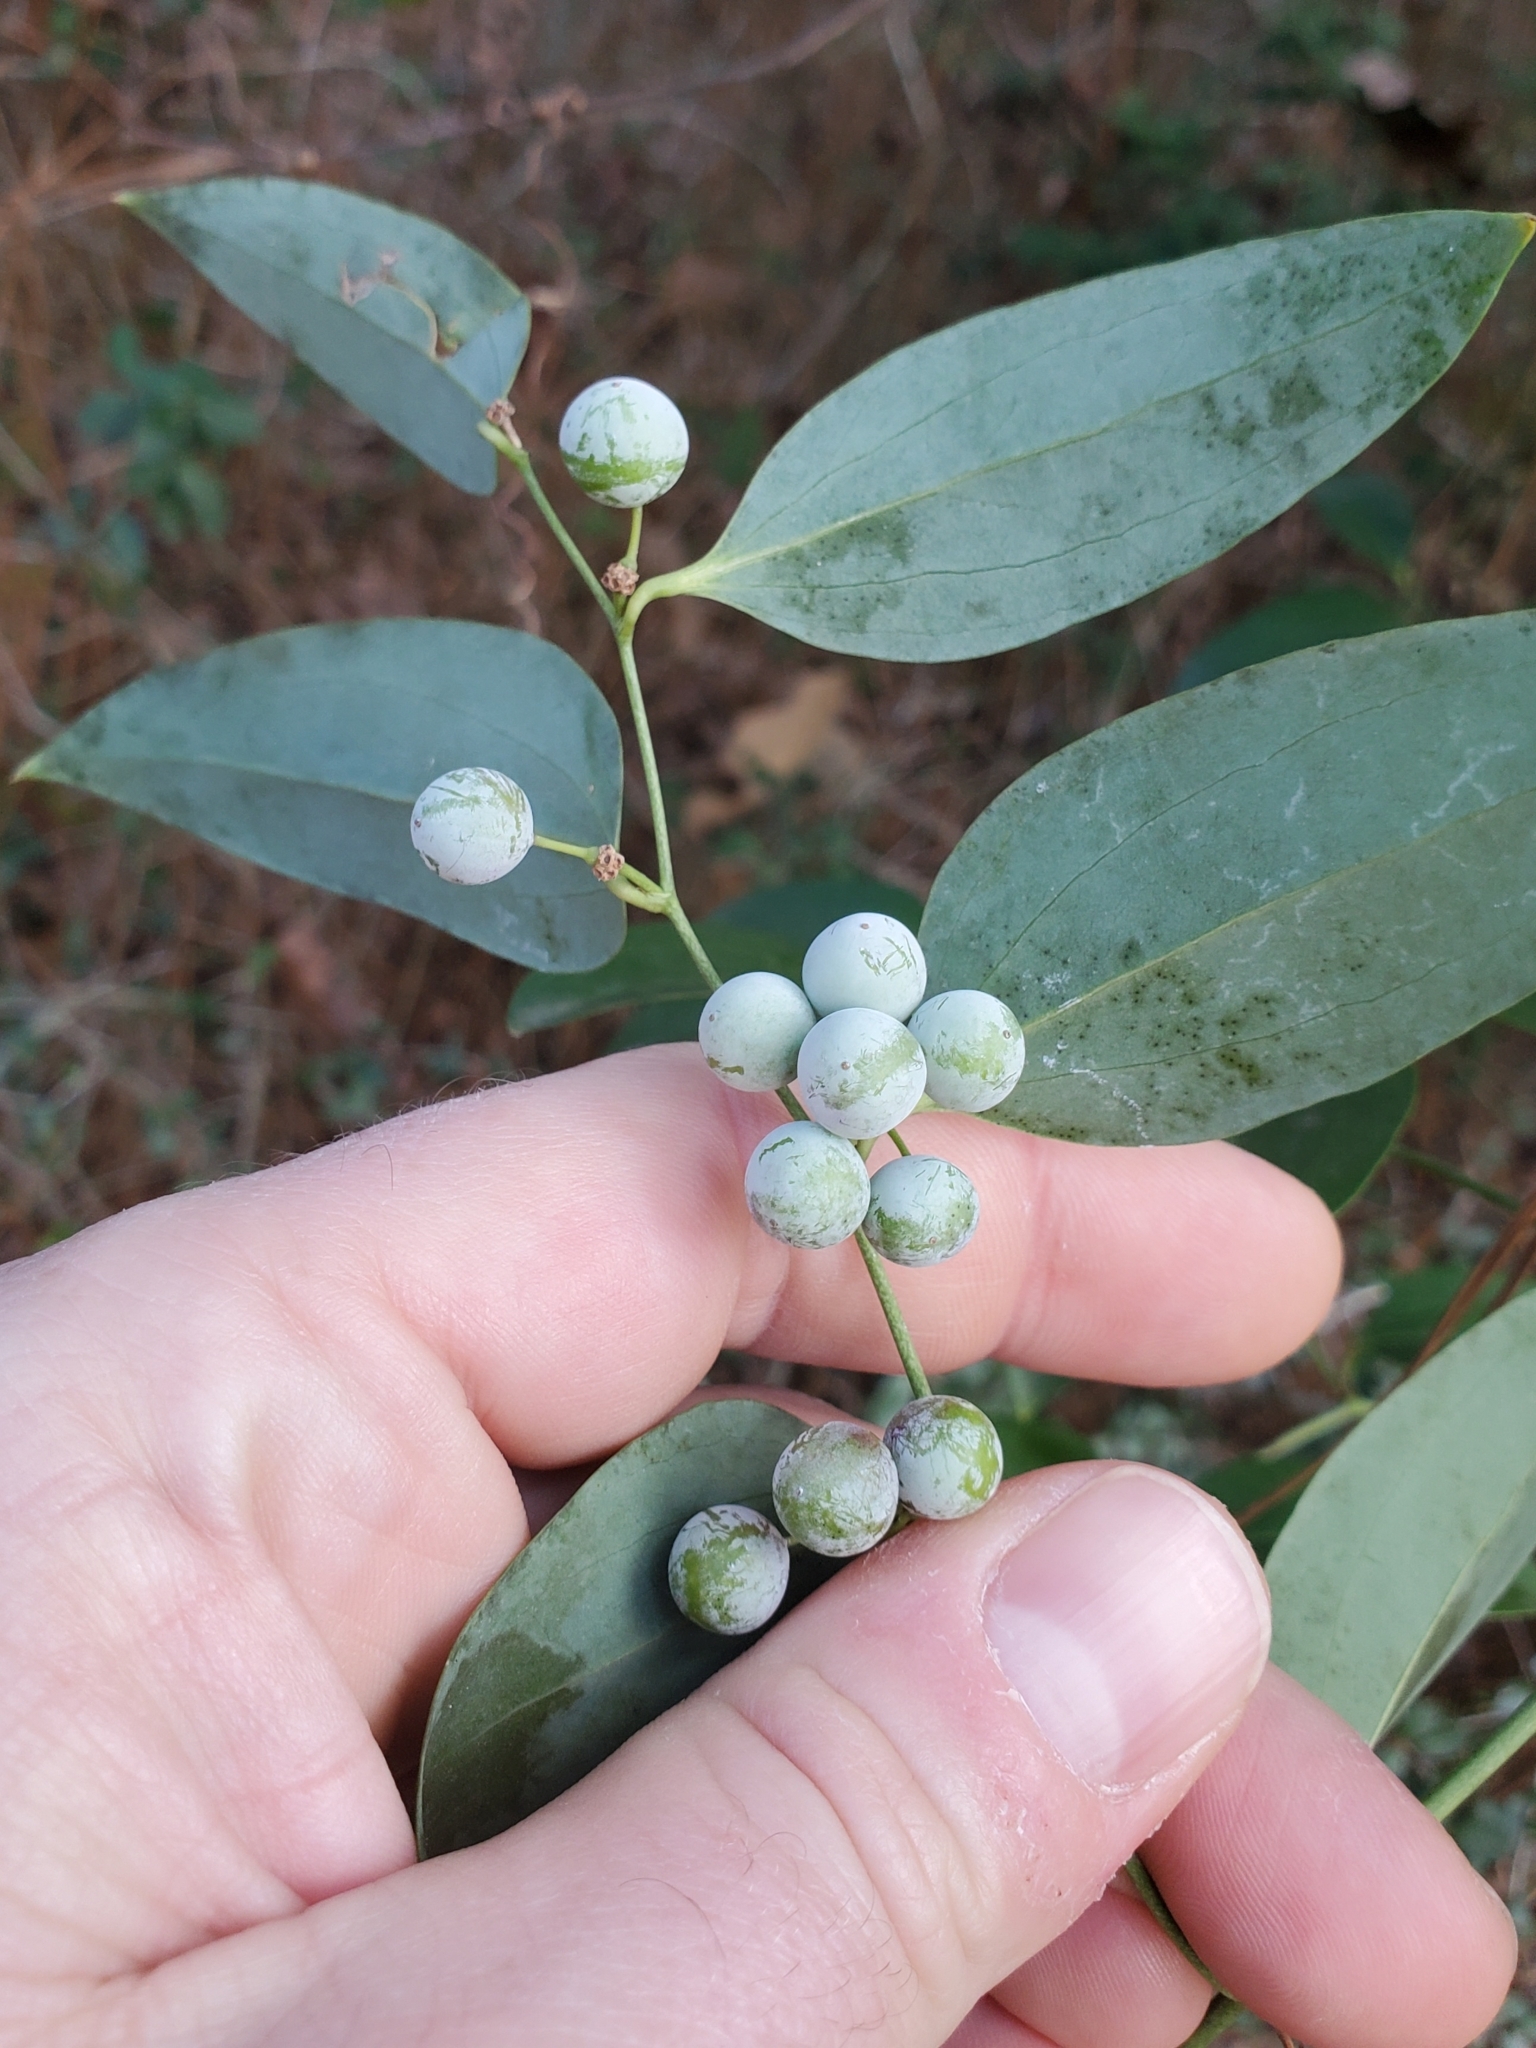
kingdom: Plantae
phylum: Tracheophyta
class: Liliopsida
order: Liliales
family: Smilacaceae
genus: Smilax
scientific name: Smilax maritima
